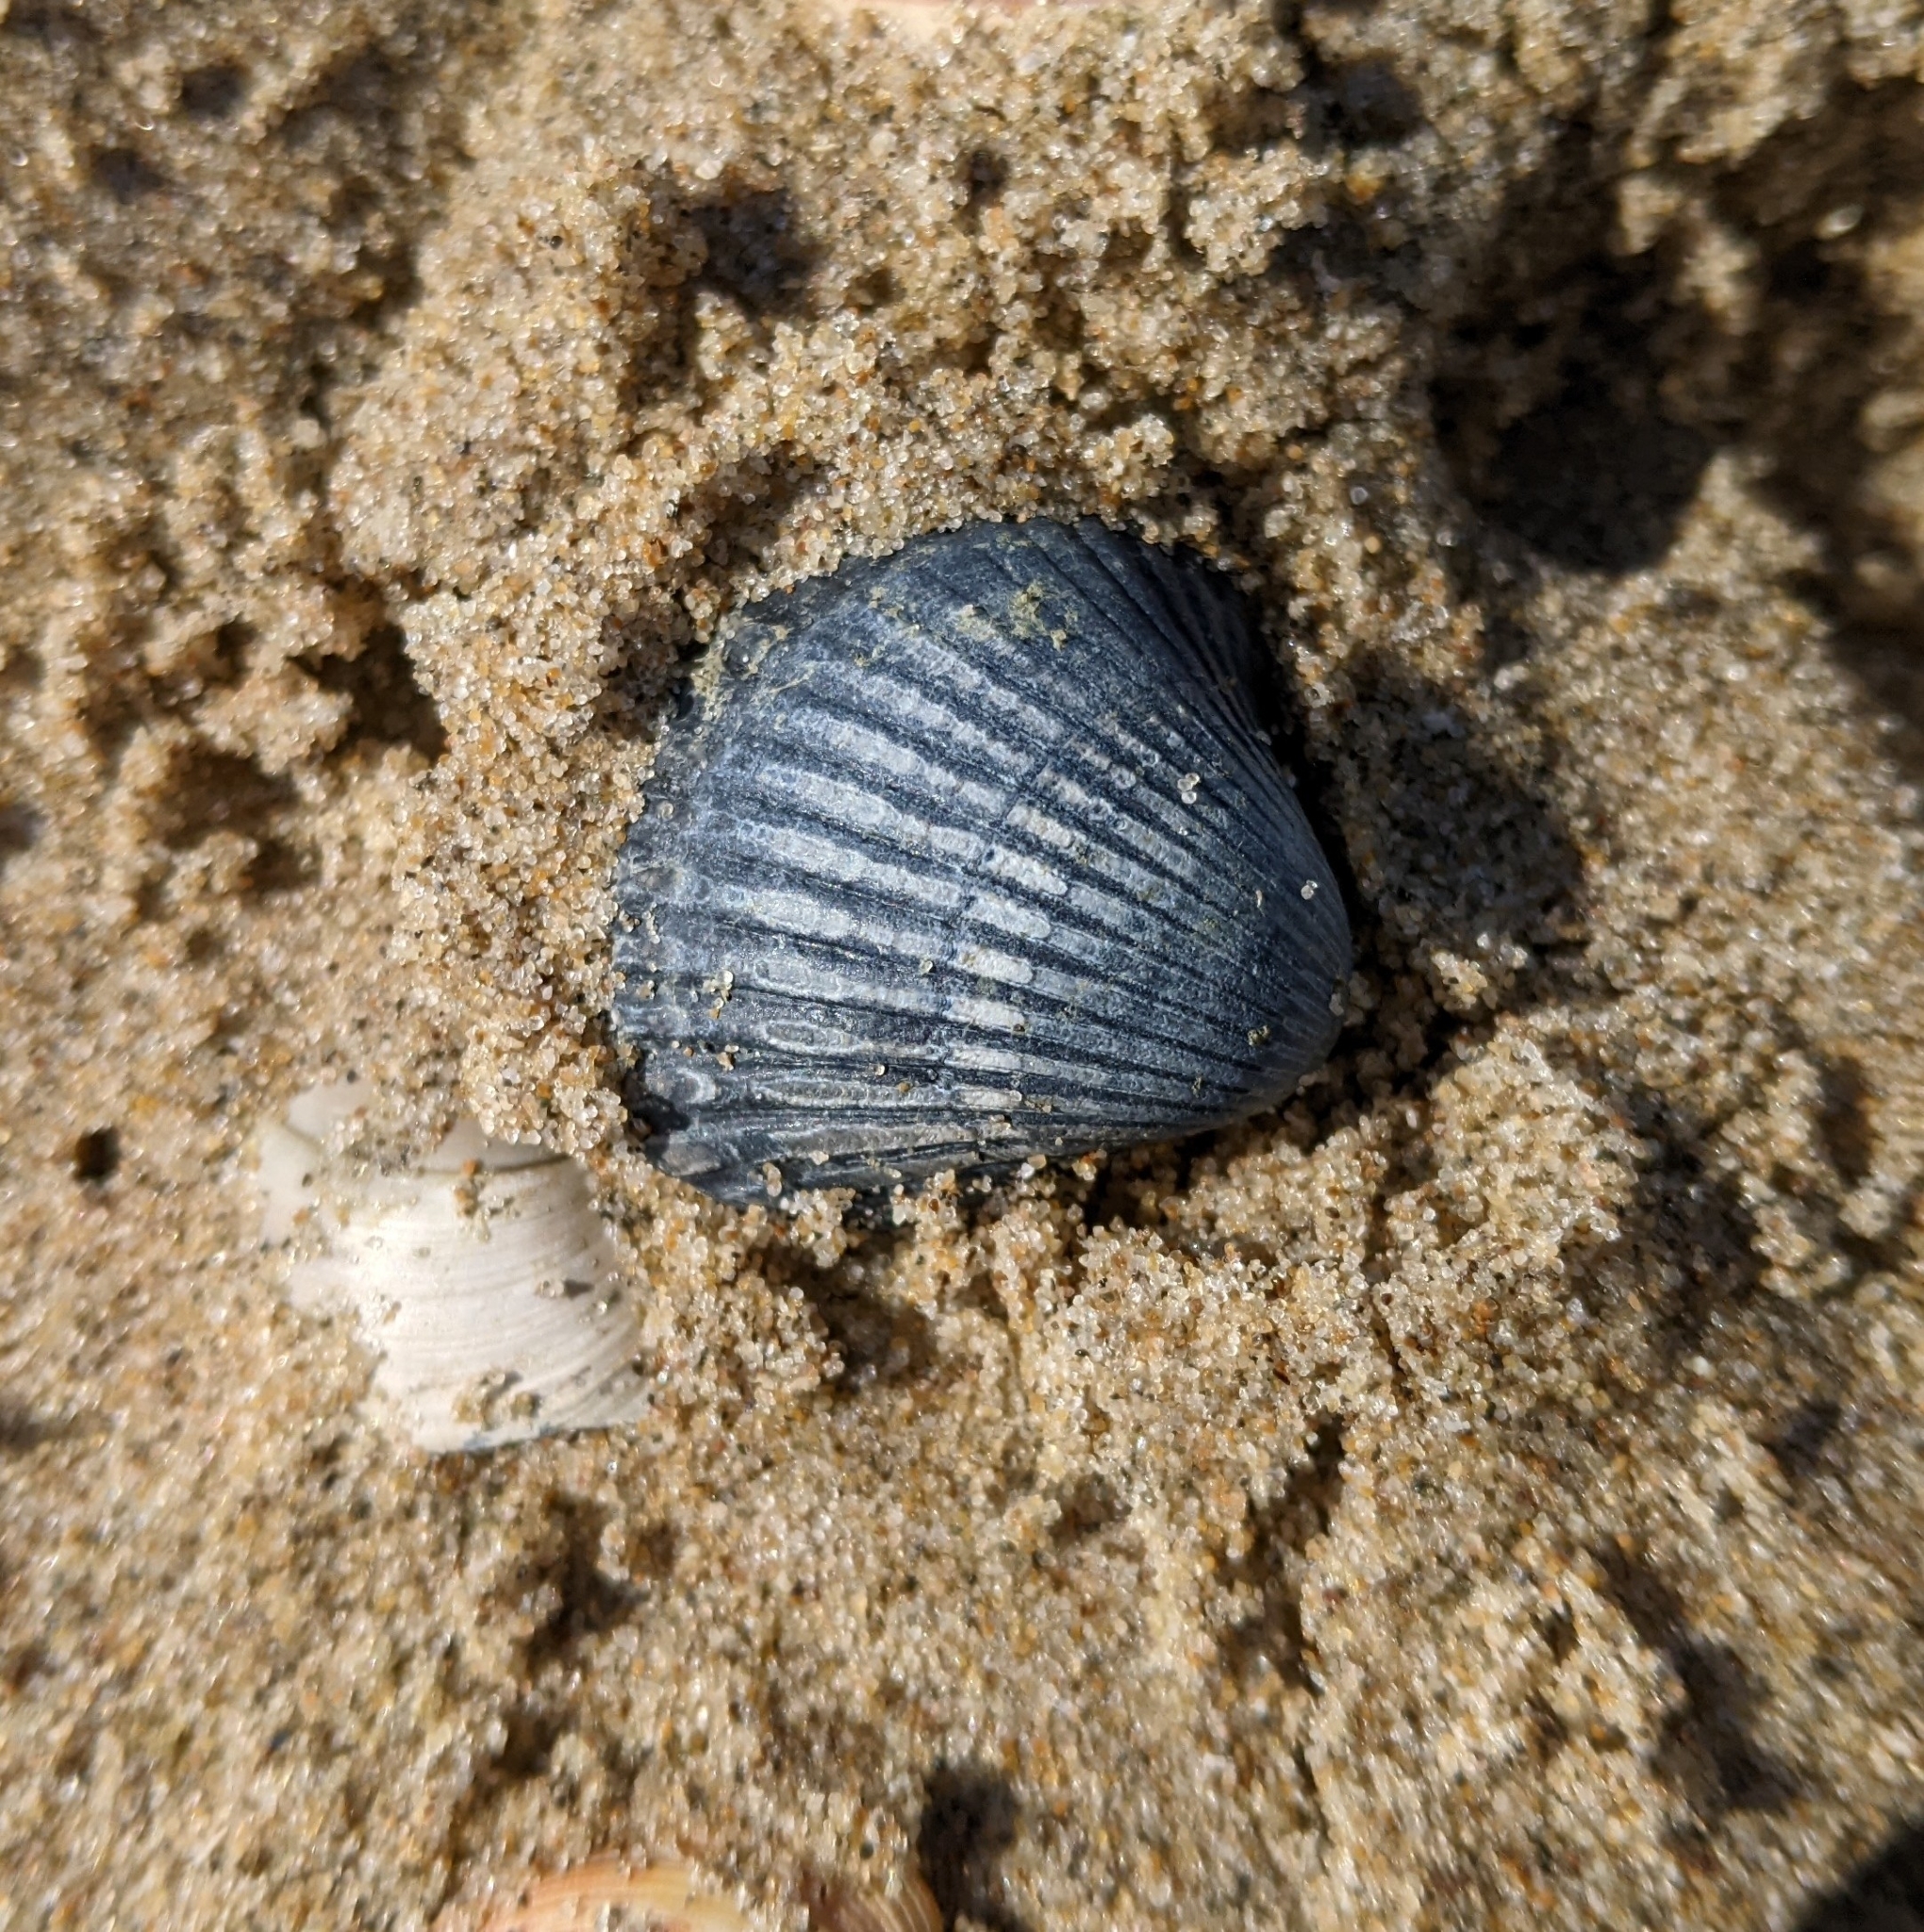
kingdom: Animalia
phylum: Mollusca
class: Bivalvia
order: Cardiida
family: Cardiidae
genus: Cerastoderma
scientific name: Cerastoderma edule
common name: Common cockle
